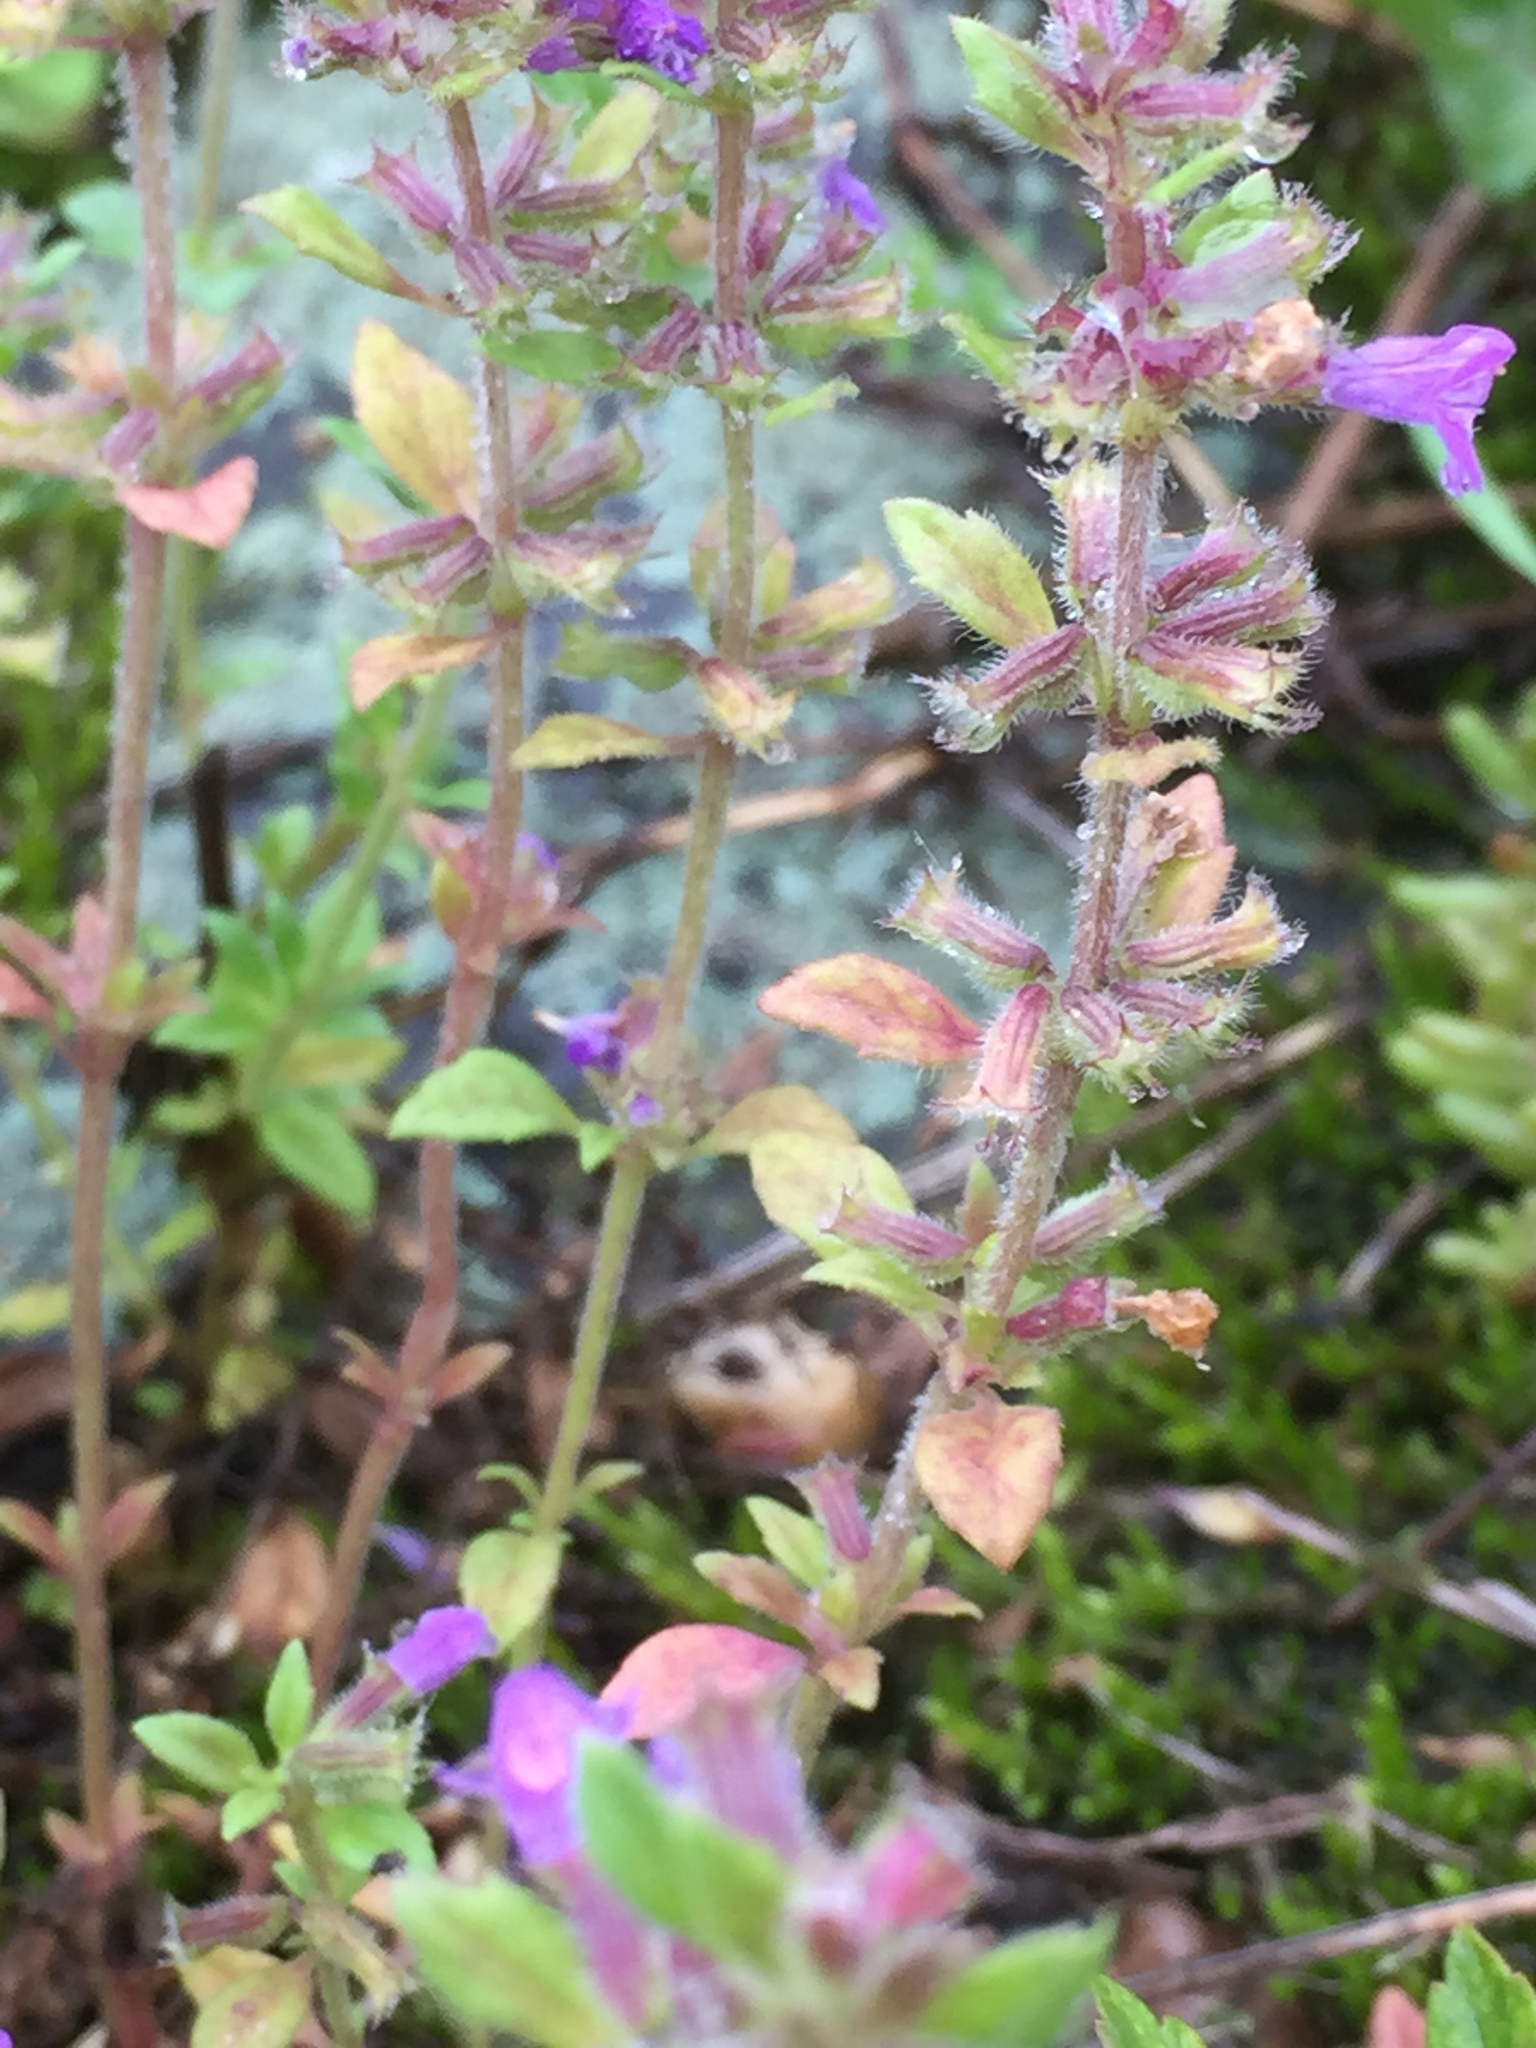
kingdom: Plantae
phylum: Tracheophyta
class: Magnoliopsida
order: Lamiales
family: Lamiaceae
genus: Clinopodium
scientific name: Clinopodium acinos
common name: Basil thyme
